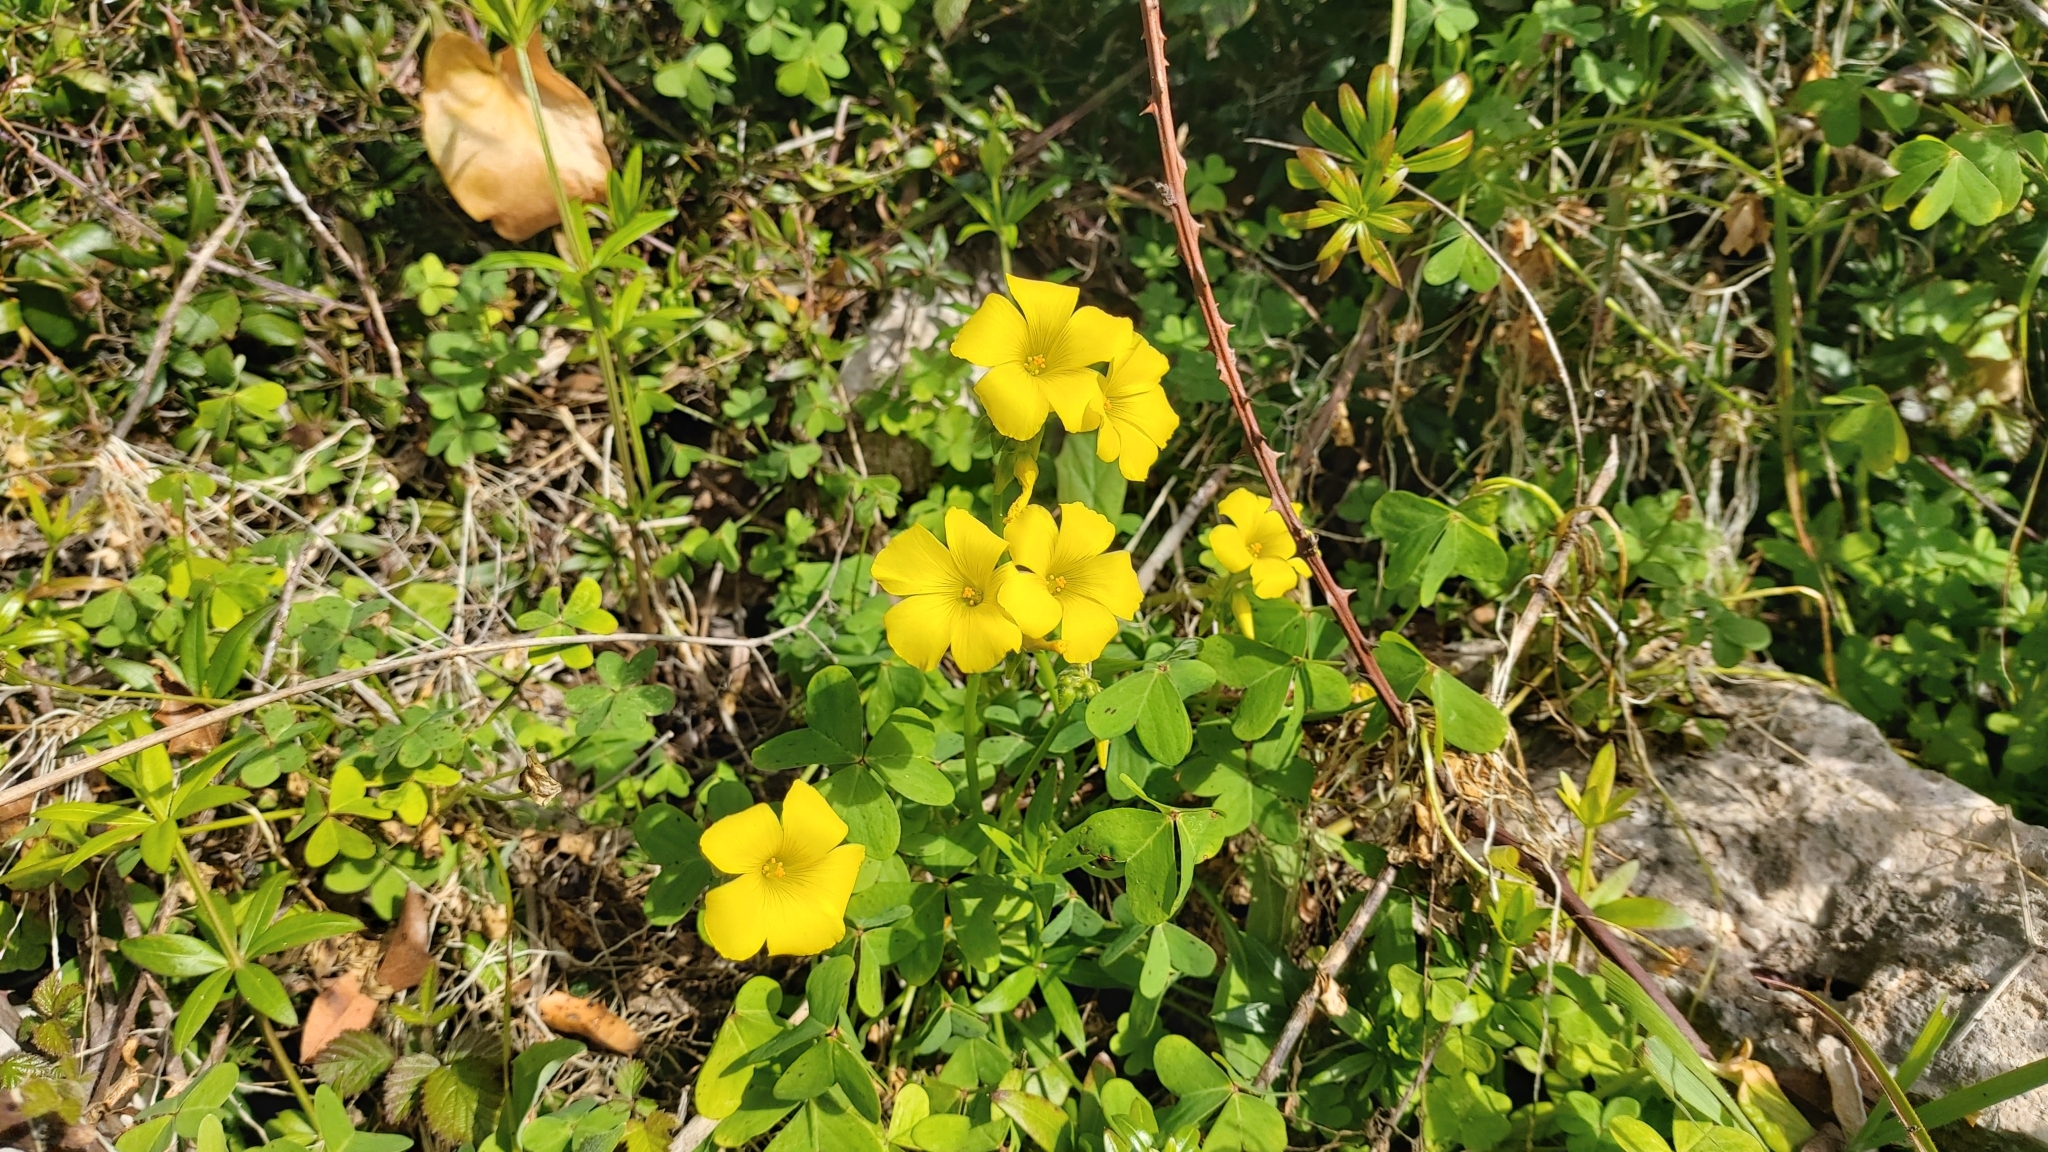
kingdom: Plantae
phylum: Tracheophyta
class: Magnoliopsida
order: Oxalidales
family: Oxalidaceae
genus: Oxalis
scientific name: Oxalis pes-caprae
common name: Bermuda-buttercup
